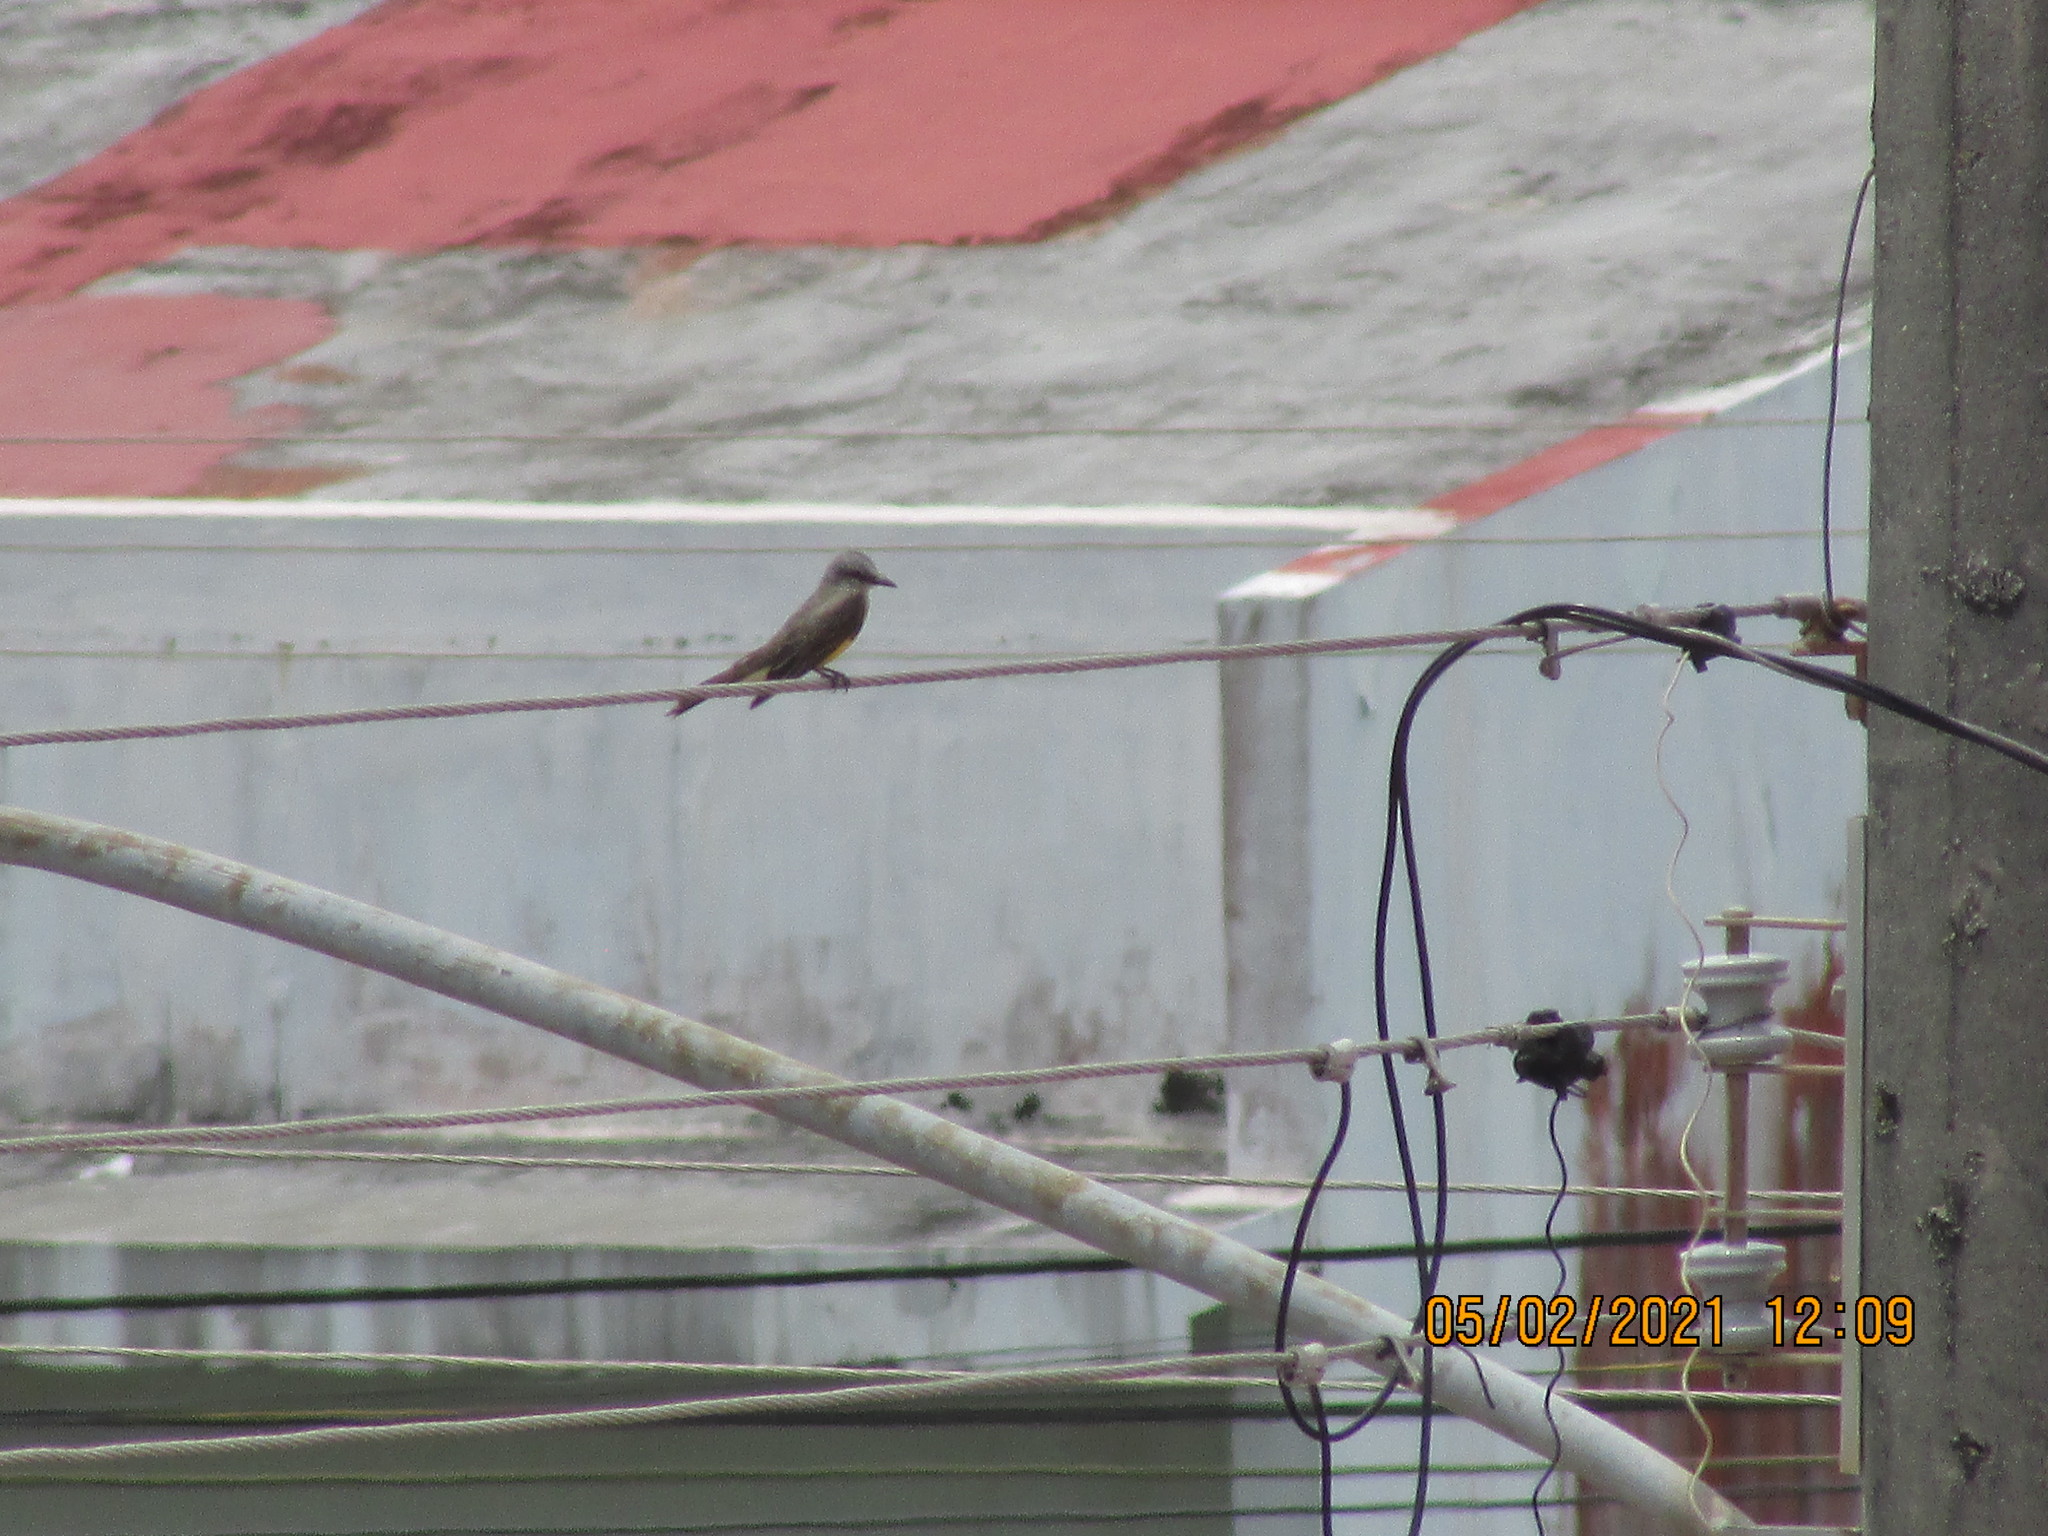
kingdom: Animalia
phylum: Chordata
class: Aves
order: Passeriformes
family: Tyrannidae
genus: Tyrannus
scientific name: Tyrannus melancholicus
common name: Tropical kingbird
